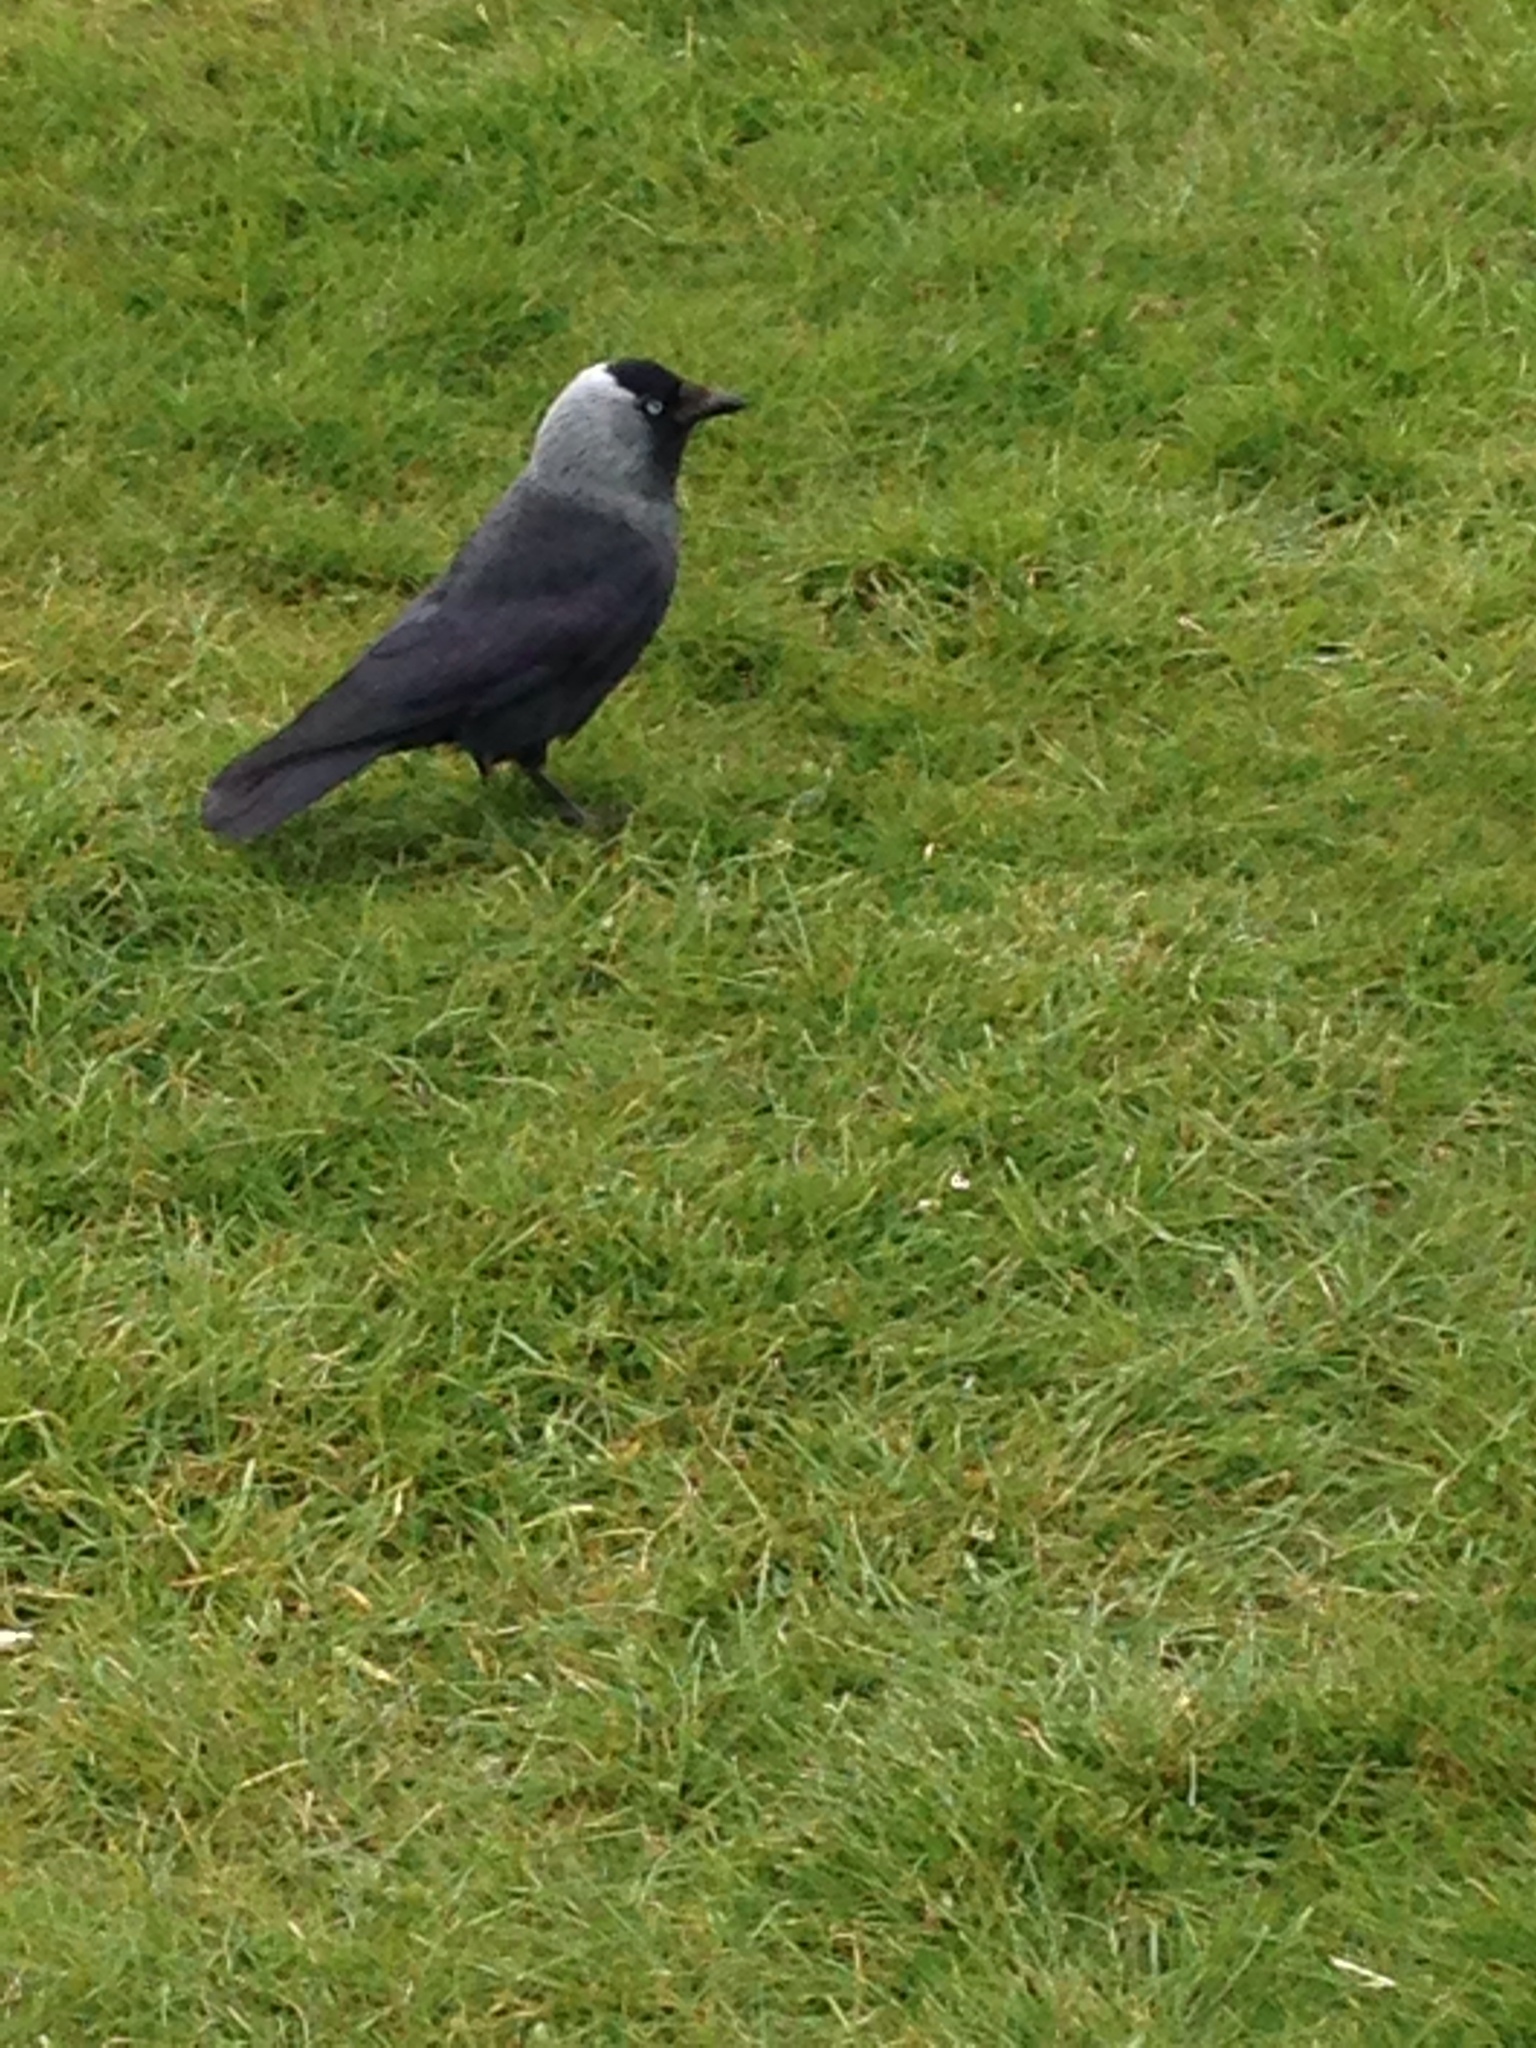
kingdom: Animalia
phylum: Chordata
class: Aves
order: Passeriformes
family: Corvidae
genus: Coloeus
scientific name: Coloeus monedula
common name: Western jackdaw
